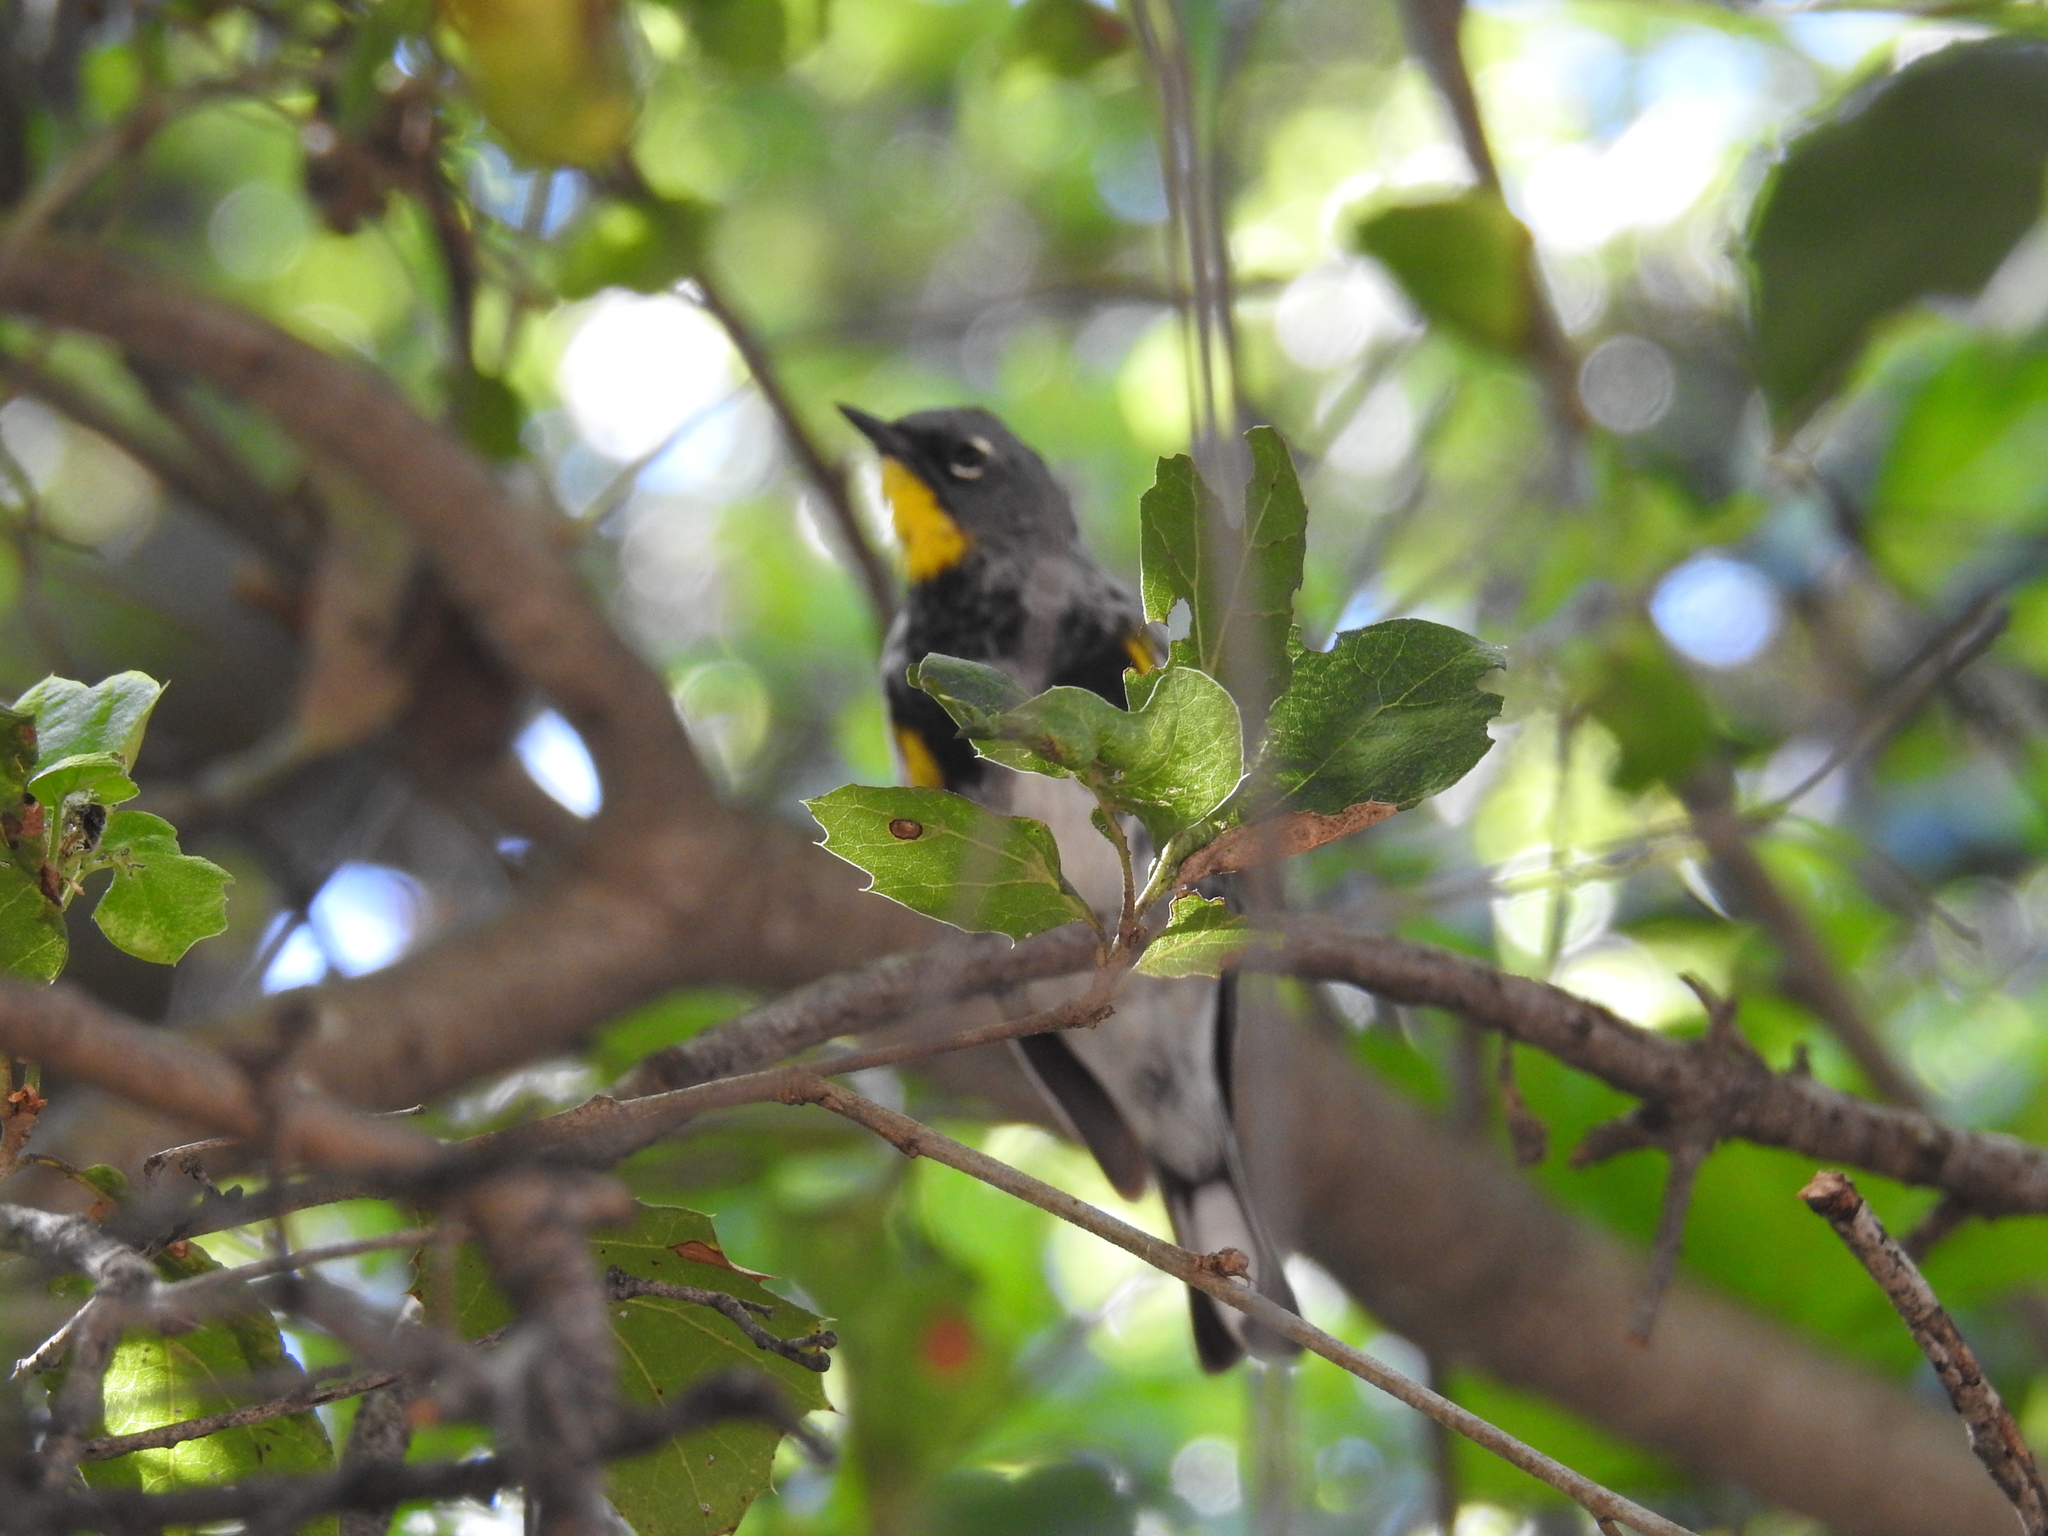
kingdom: Animalia
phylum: Chordata
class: Aves
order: Passeriformes
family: Parulidae
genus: Setophaga
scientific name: Setophaga coronata
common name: Myrtle warbler
